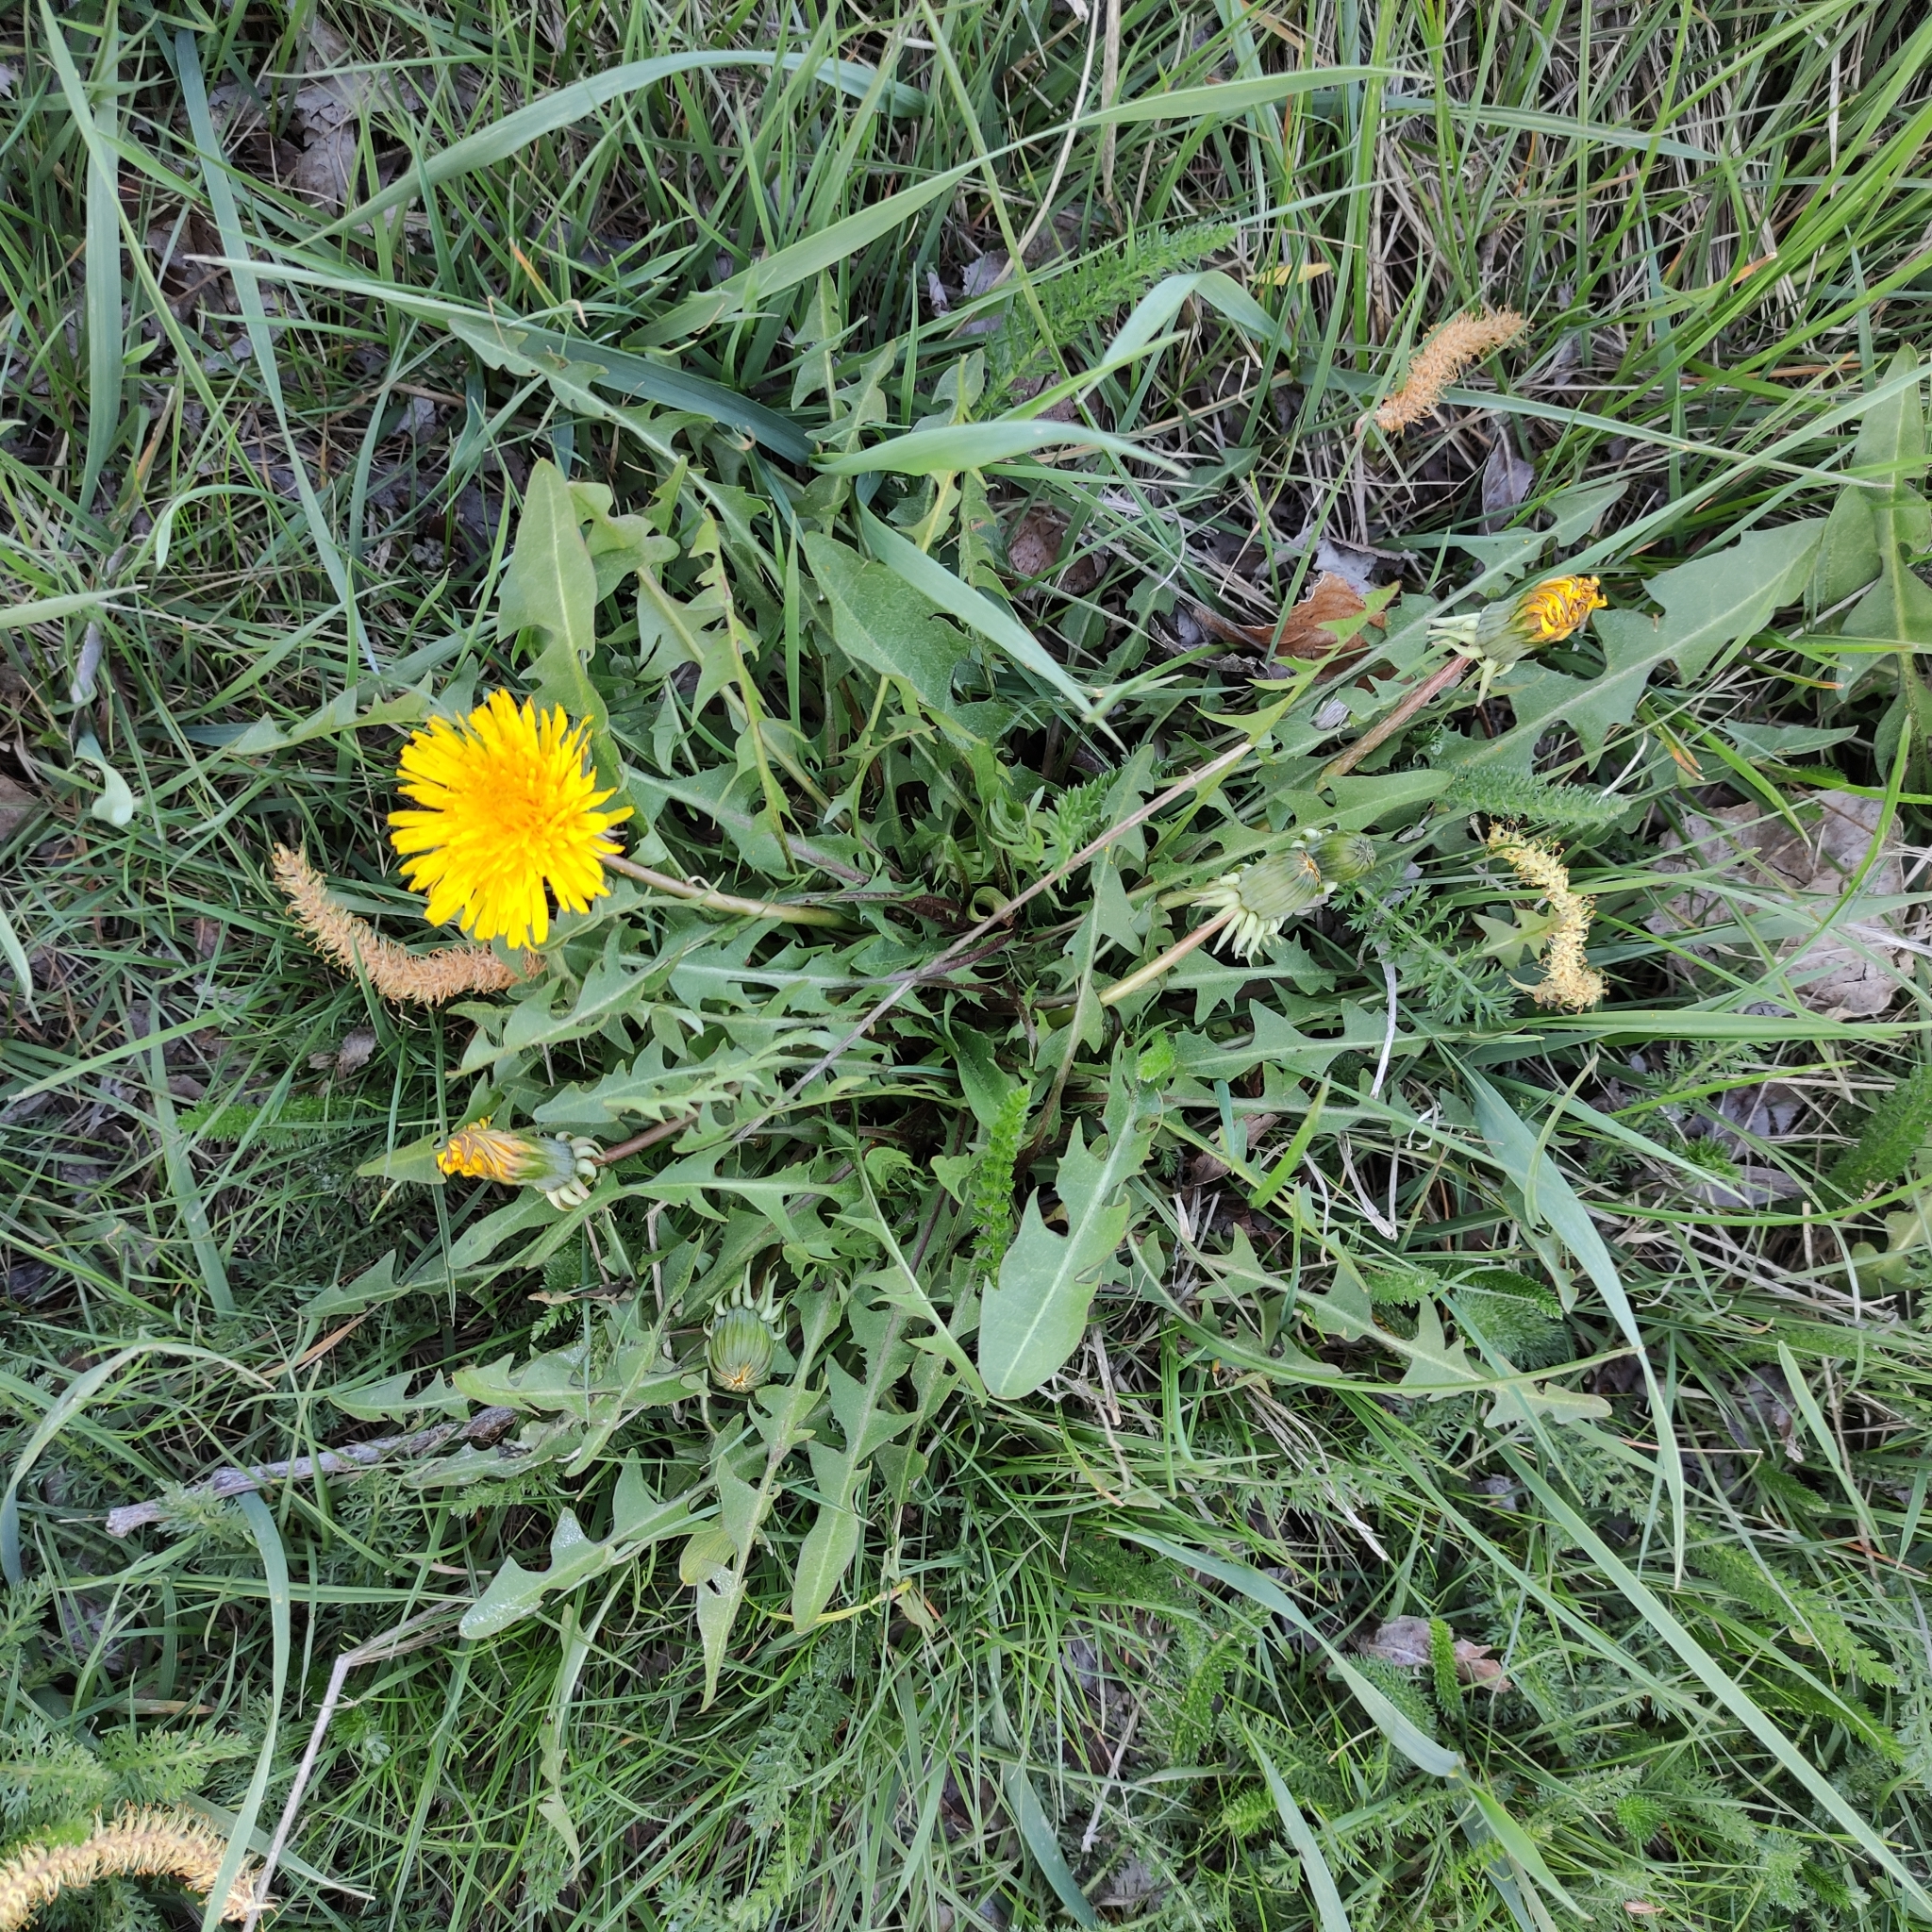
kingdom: Plantae
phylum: Tracheophyta
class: Magnoliopsida
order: Asterales
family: Asteraceae
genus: Taraxacum
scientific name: Taraxacum officinale
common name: Common dandelion
